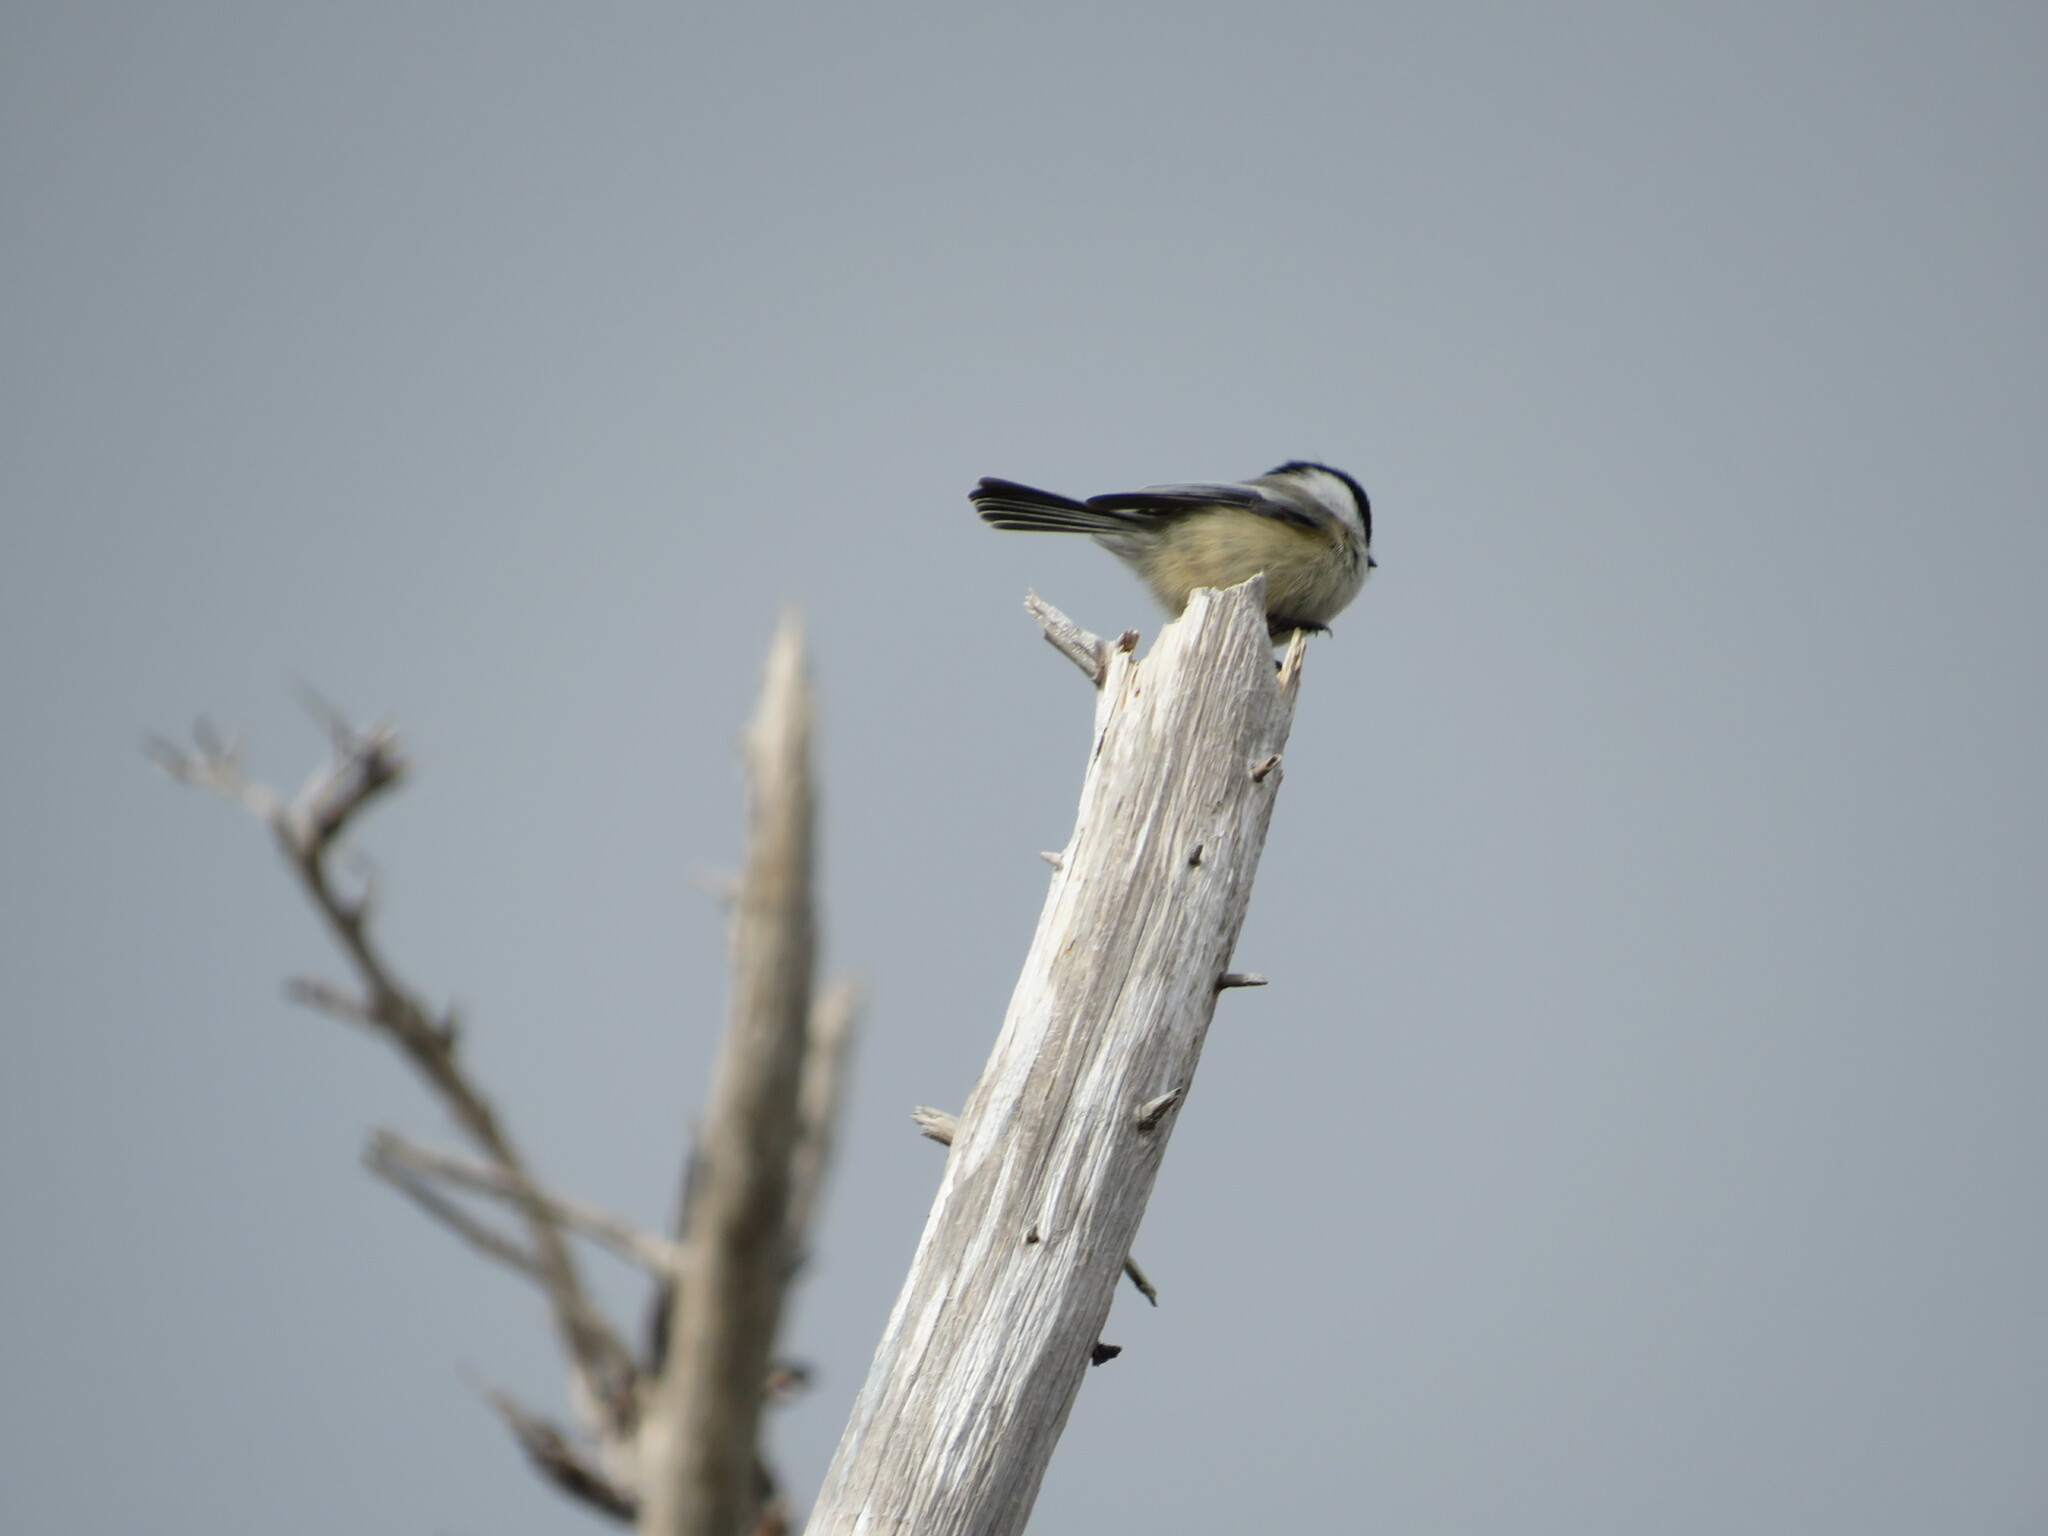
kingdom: Animalia
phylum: Chordata
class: Aves
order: Passeriformes
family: Paridae
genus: Poecile
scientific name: Poecile atricapillus
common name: Black-capped chickadee
